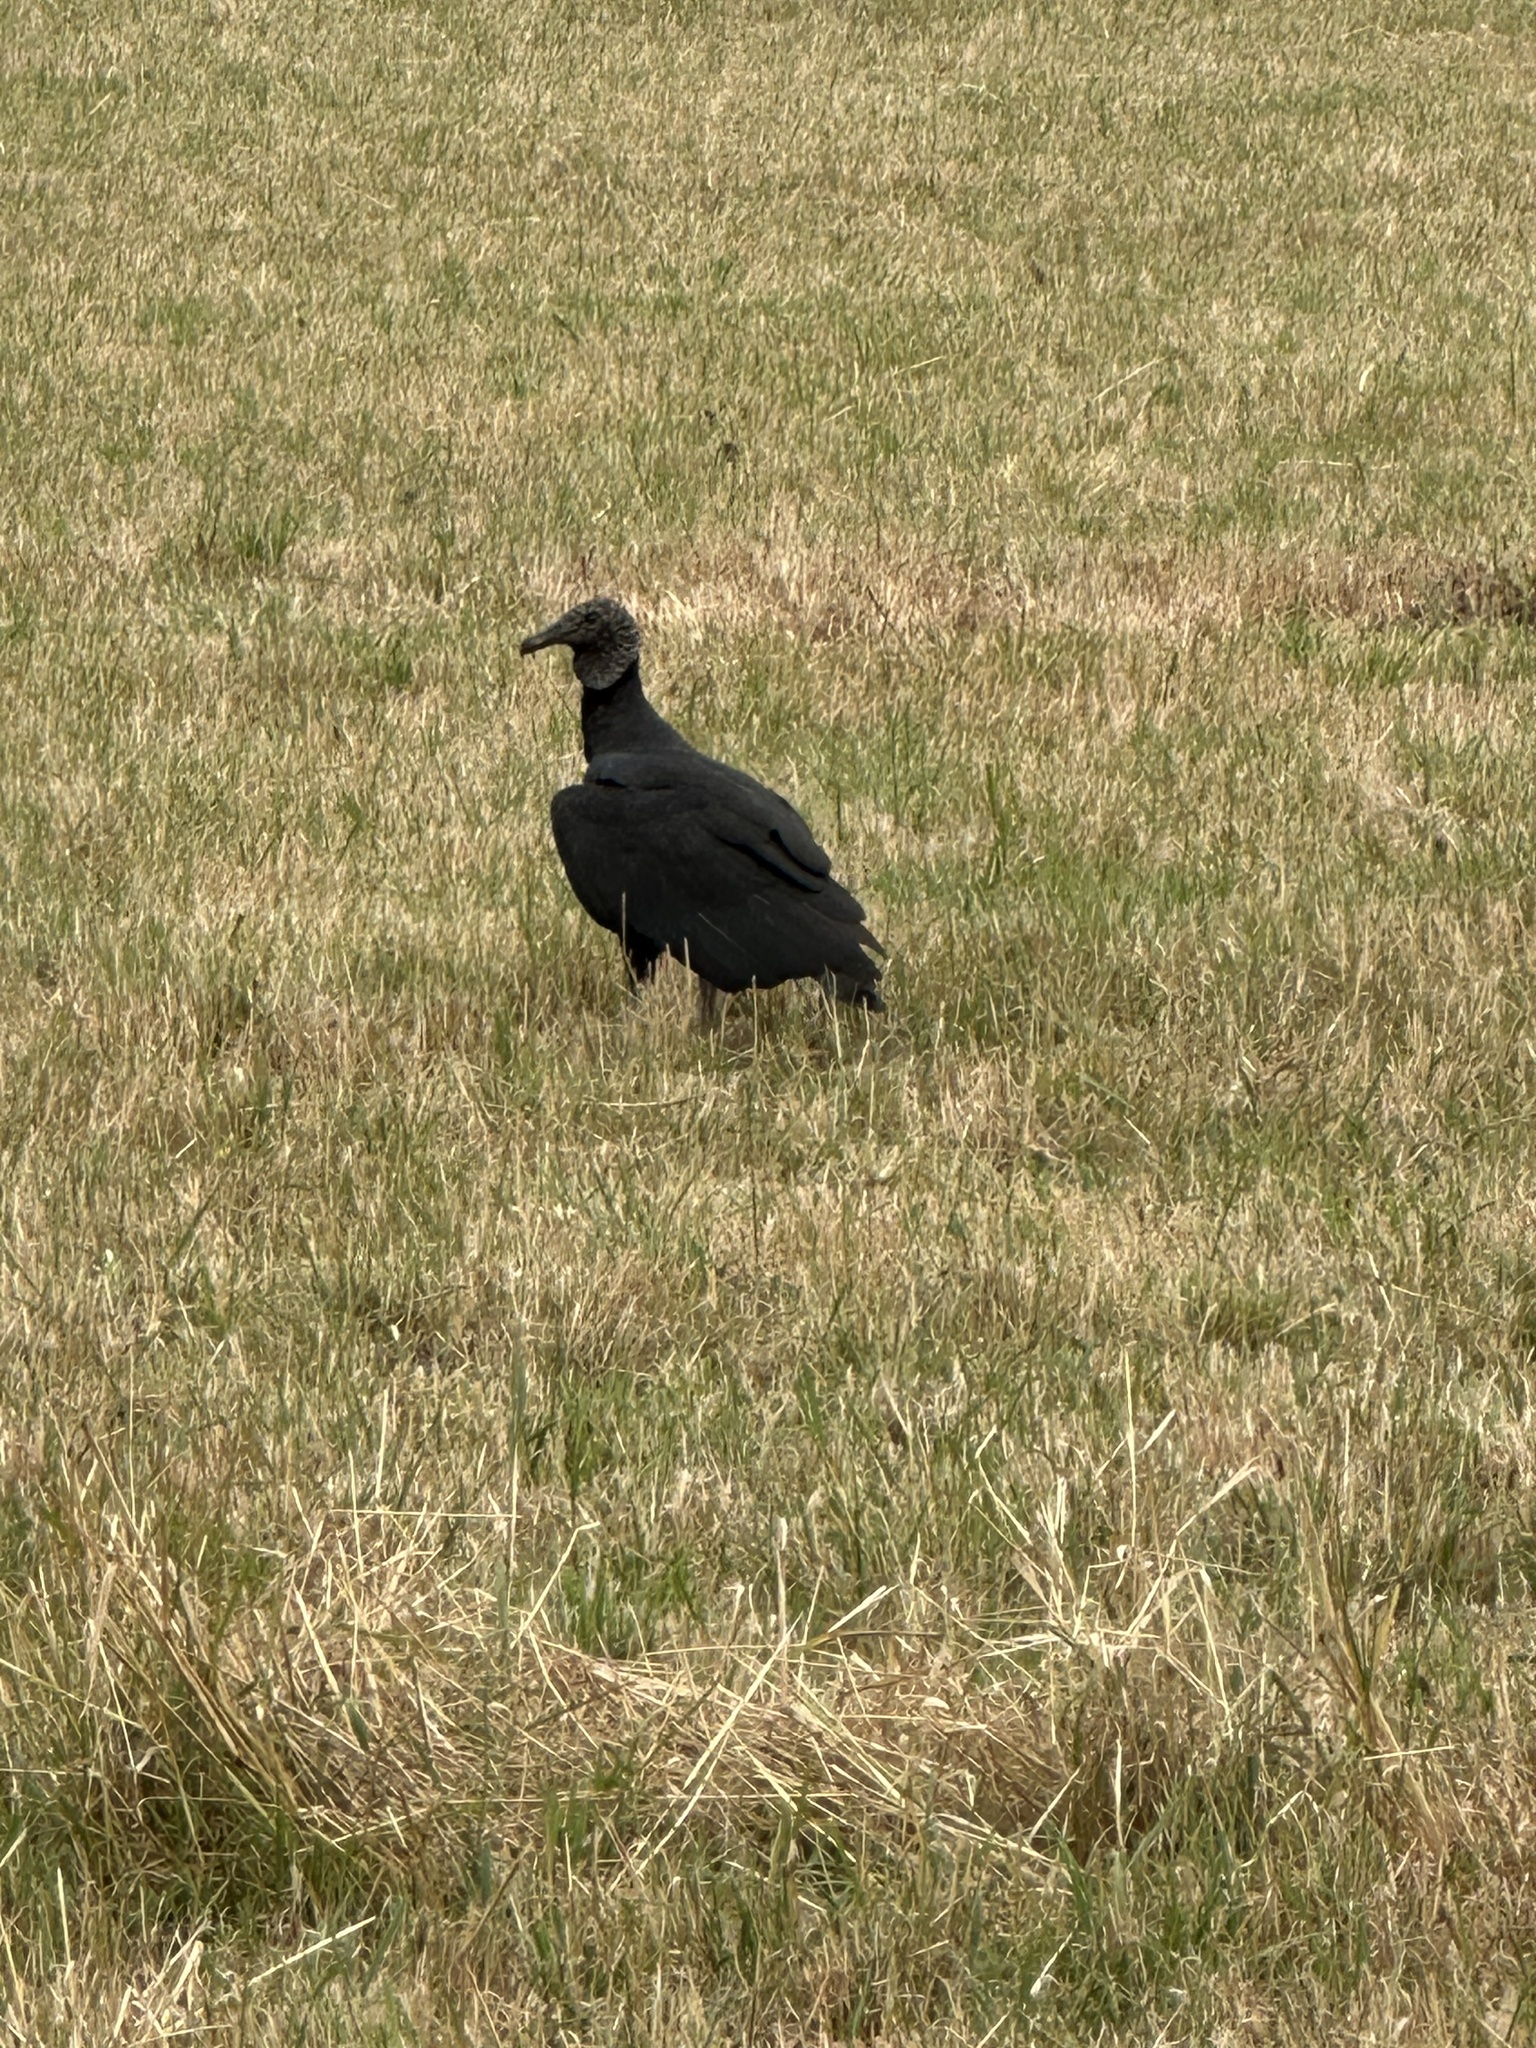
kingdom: Animalia
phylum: Chordata
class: Aves
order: Accipitriformes
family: Cathartidae
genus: Coragyps
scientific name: Coragyps atratus
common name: Black vulture
